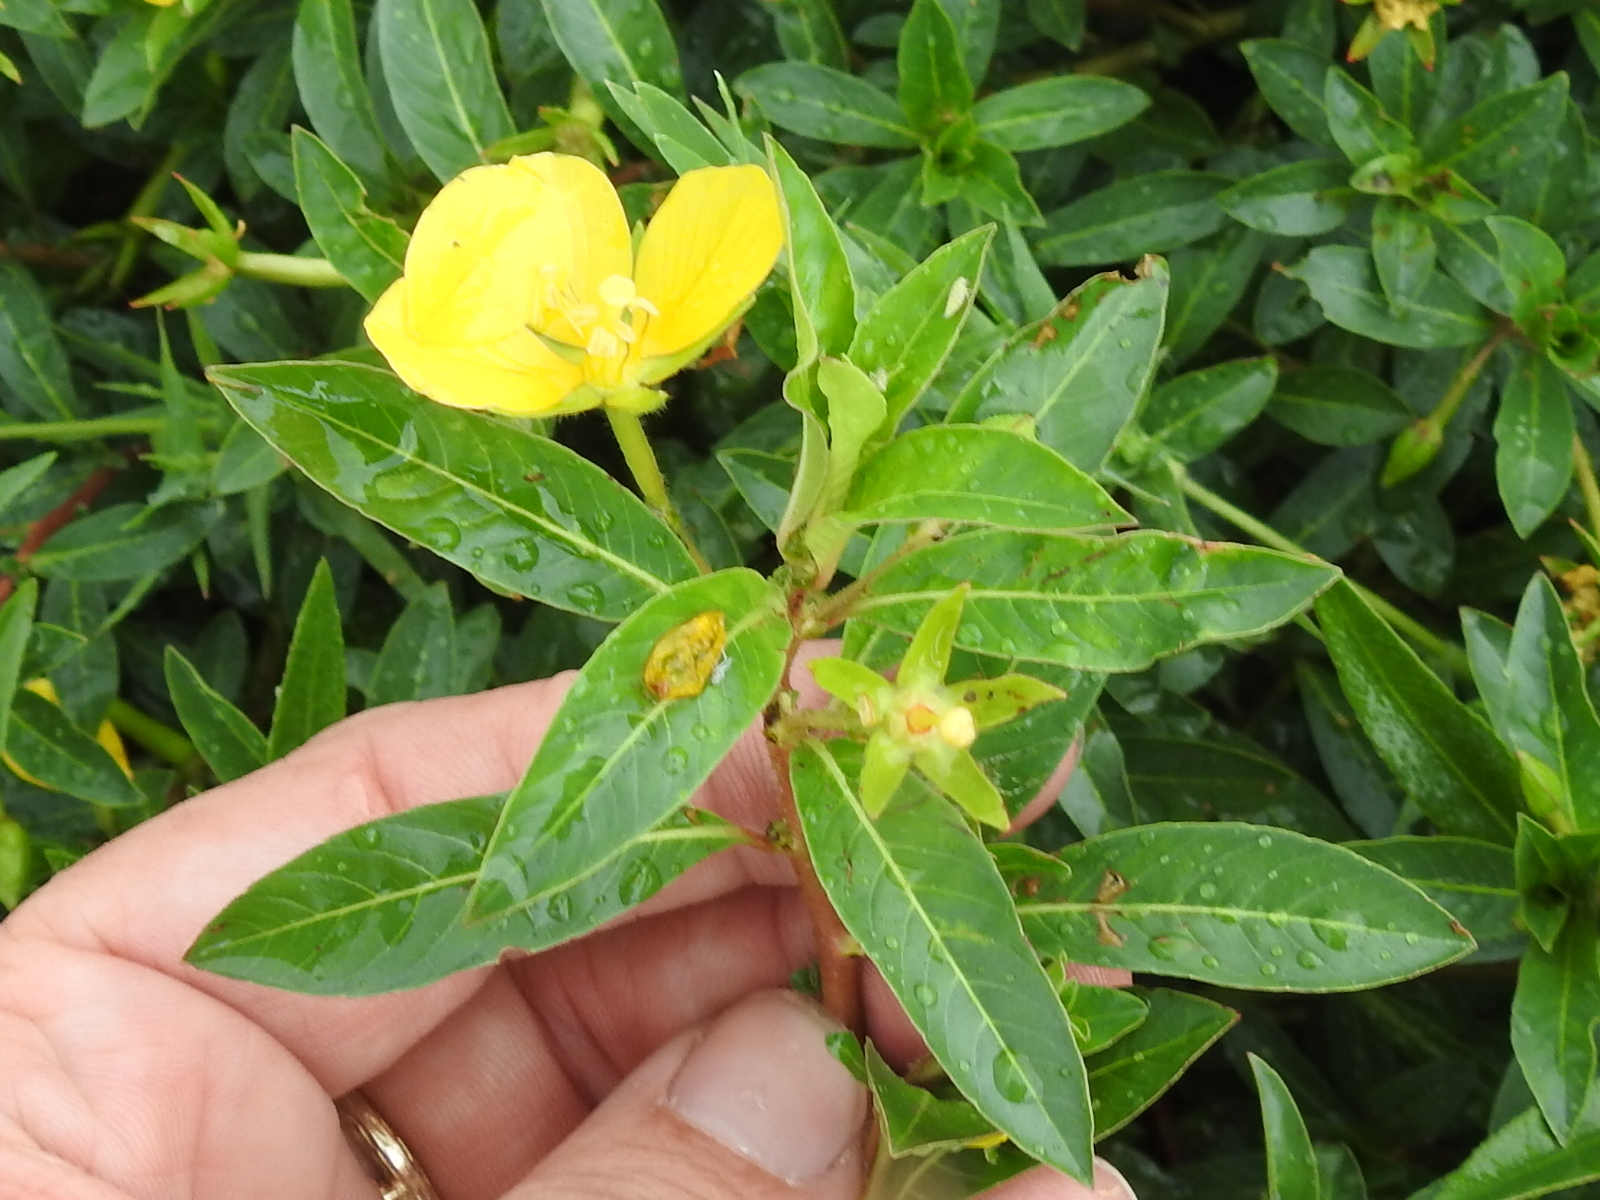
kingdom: Plantae
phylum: Tracheophyta
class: Magnoliopsida
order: Myrtales
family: Onagraceae
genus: Ludwigia
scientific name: Ludwigia peploides
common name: Floating primrose-willow
